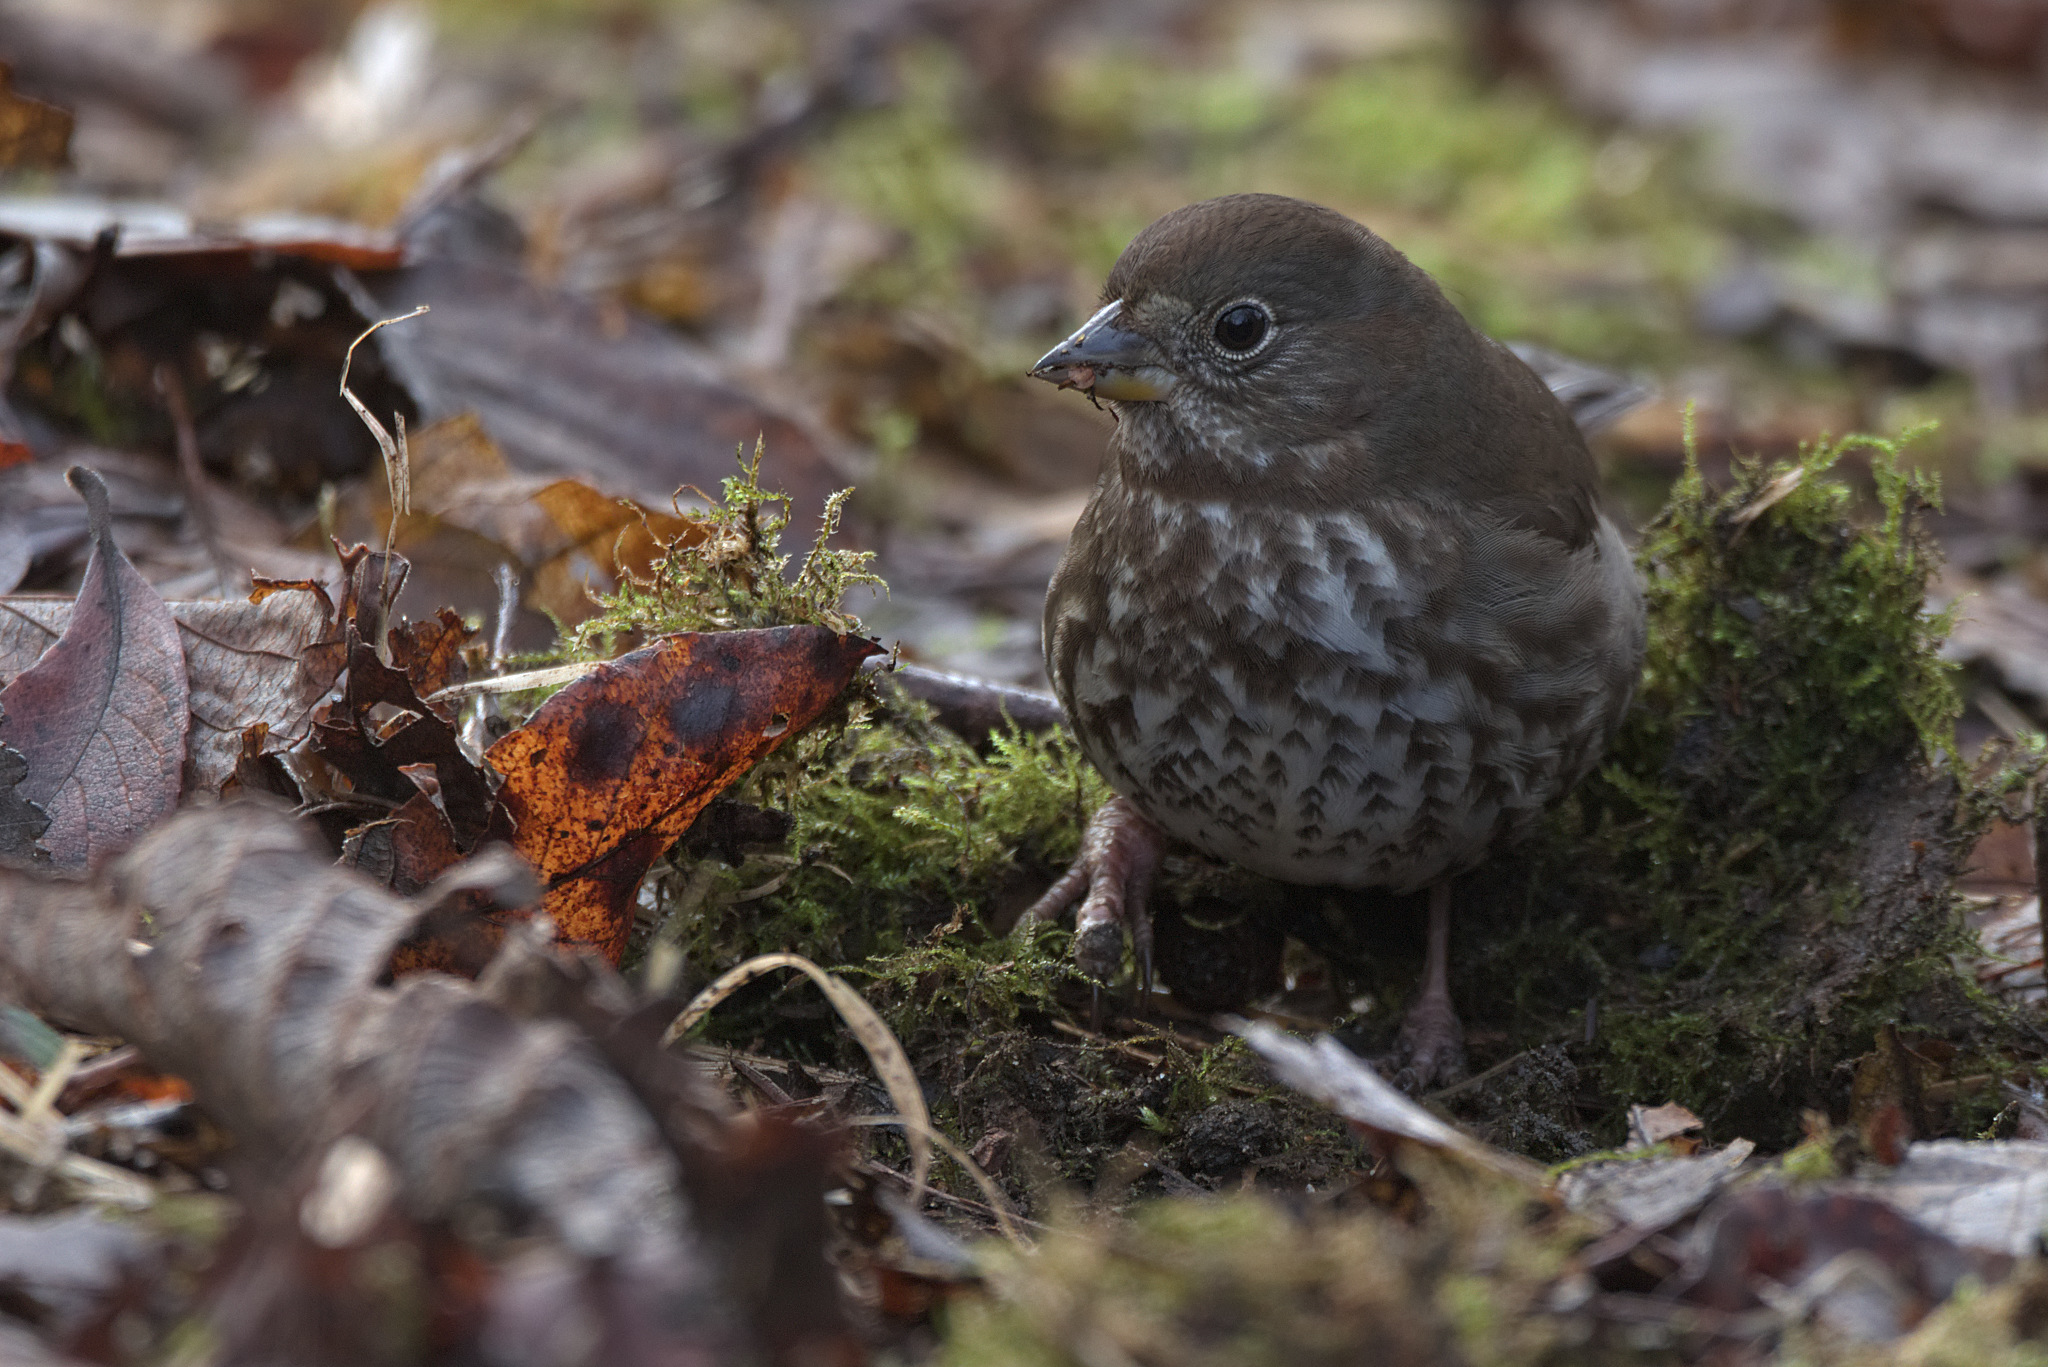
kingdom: Animalia
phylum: Chordata
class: Aves
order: Passeriformes
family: Passerellidae
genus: Passerella
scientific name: Passerella iliaca
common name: Fox sparrow
